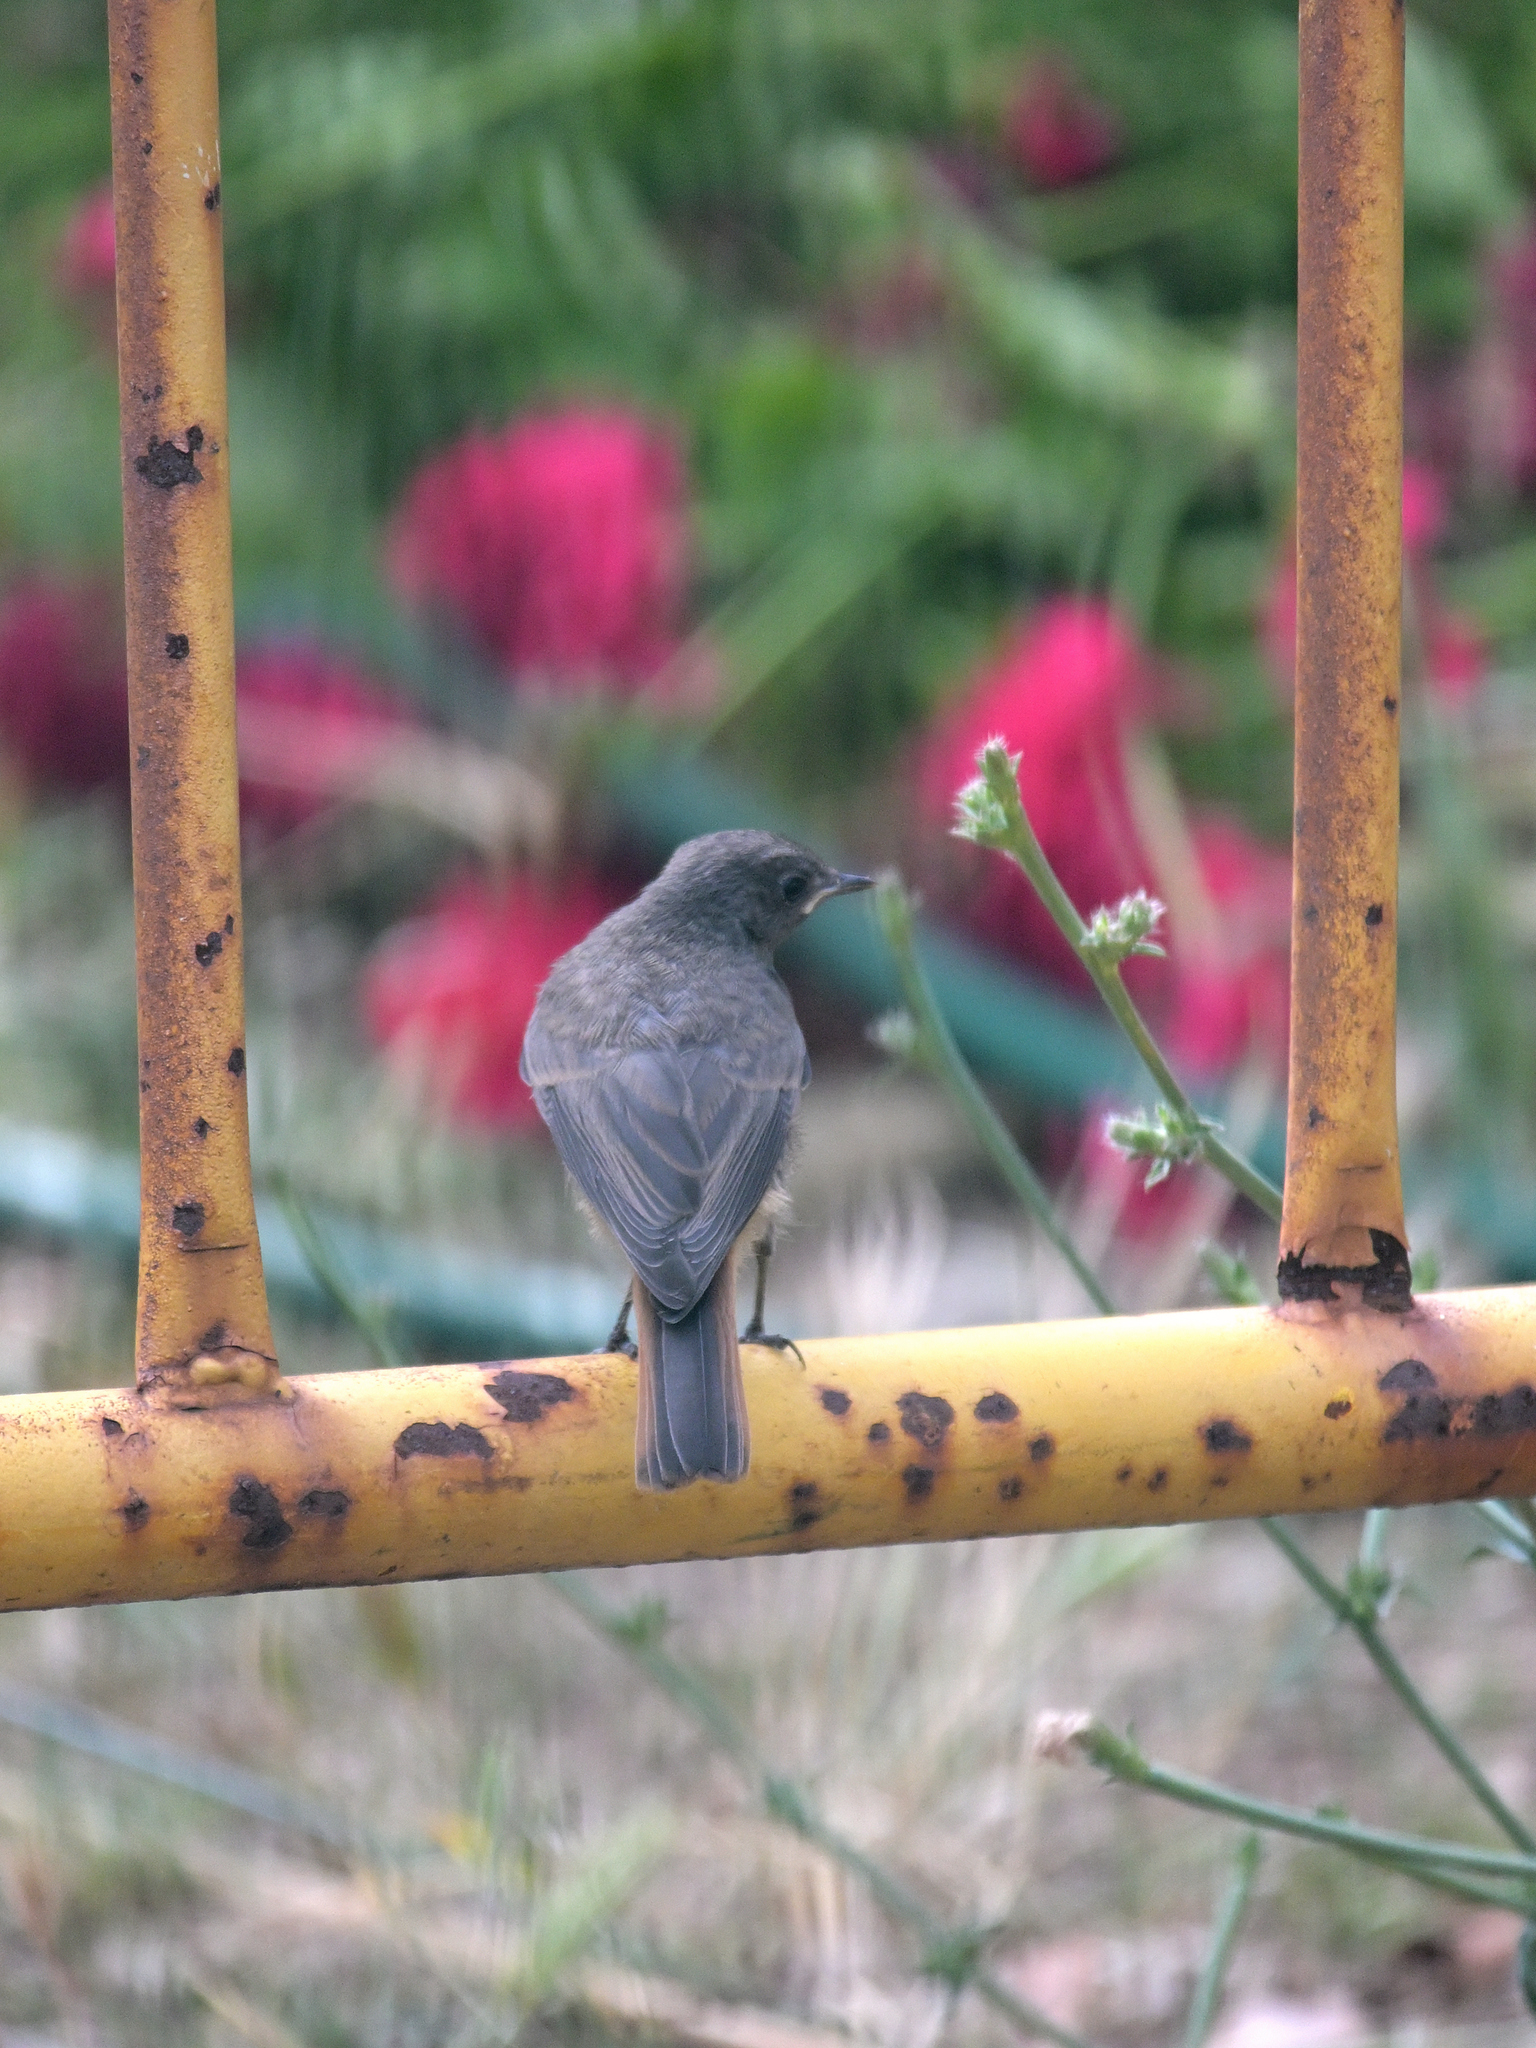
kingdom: Animalia
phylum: Chordata
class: Aves
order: Passeriformes
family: Muscicapidae
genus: Phoenicurus
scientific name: Phoenicurus ochruros
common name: Black redstart
